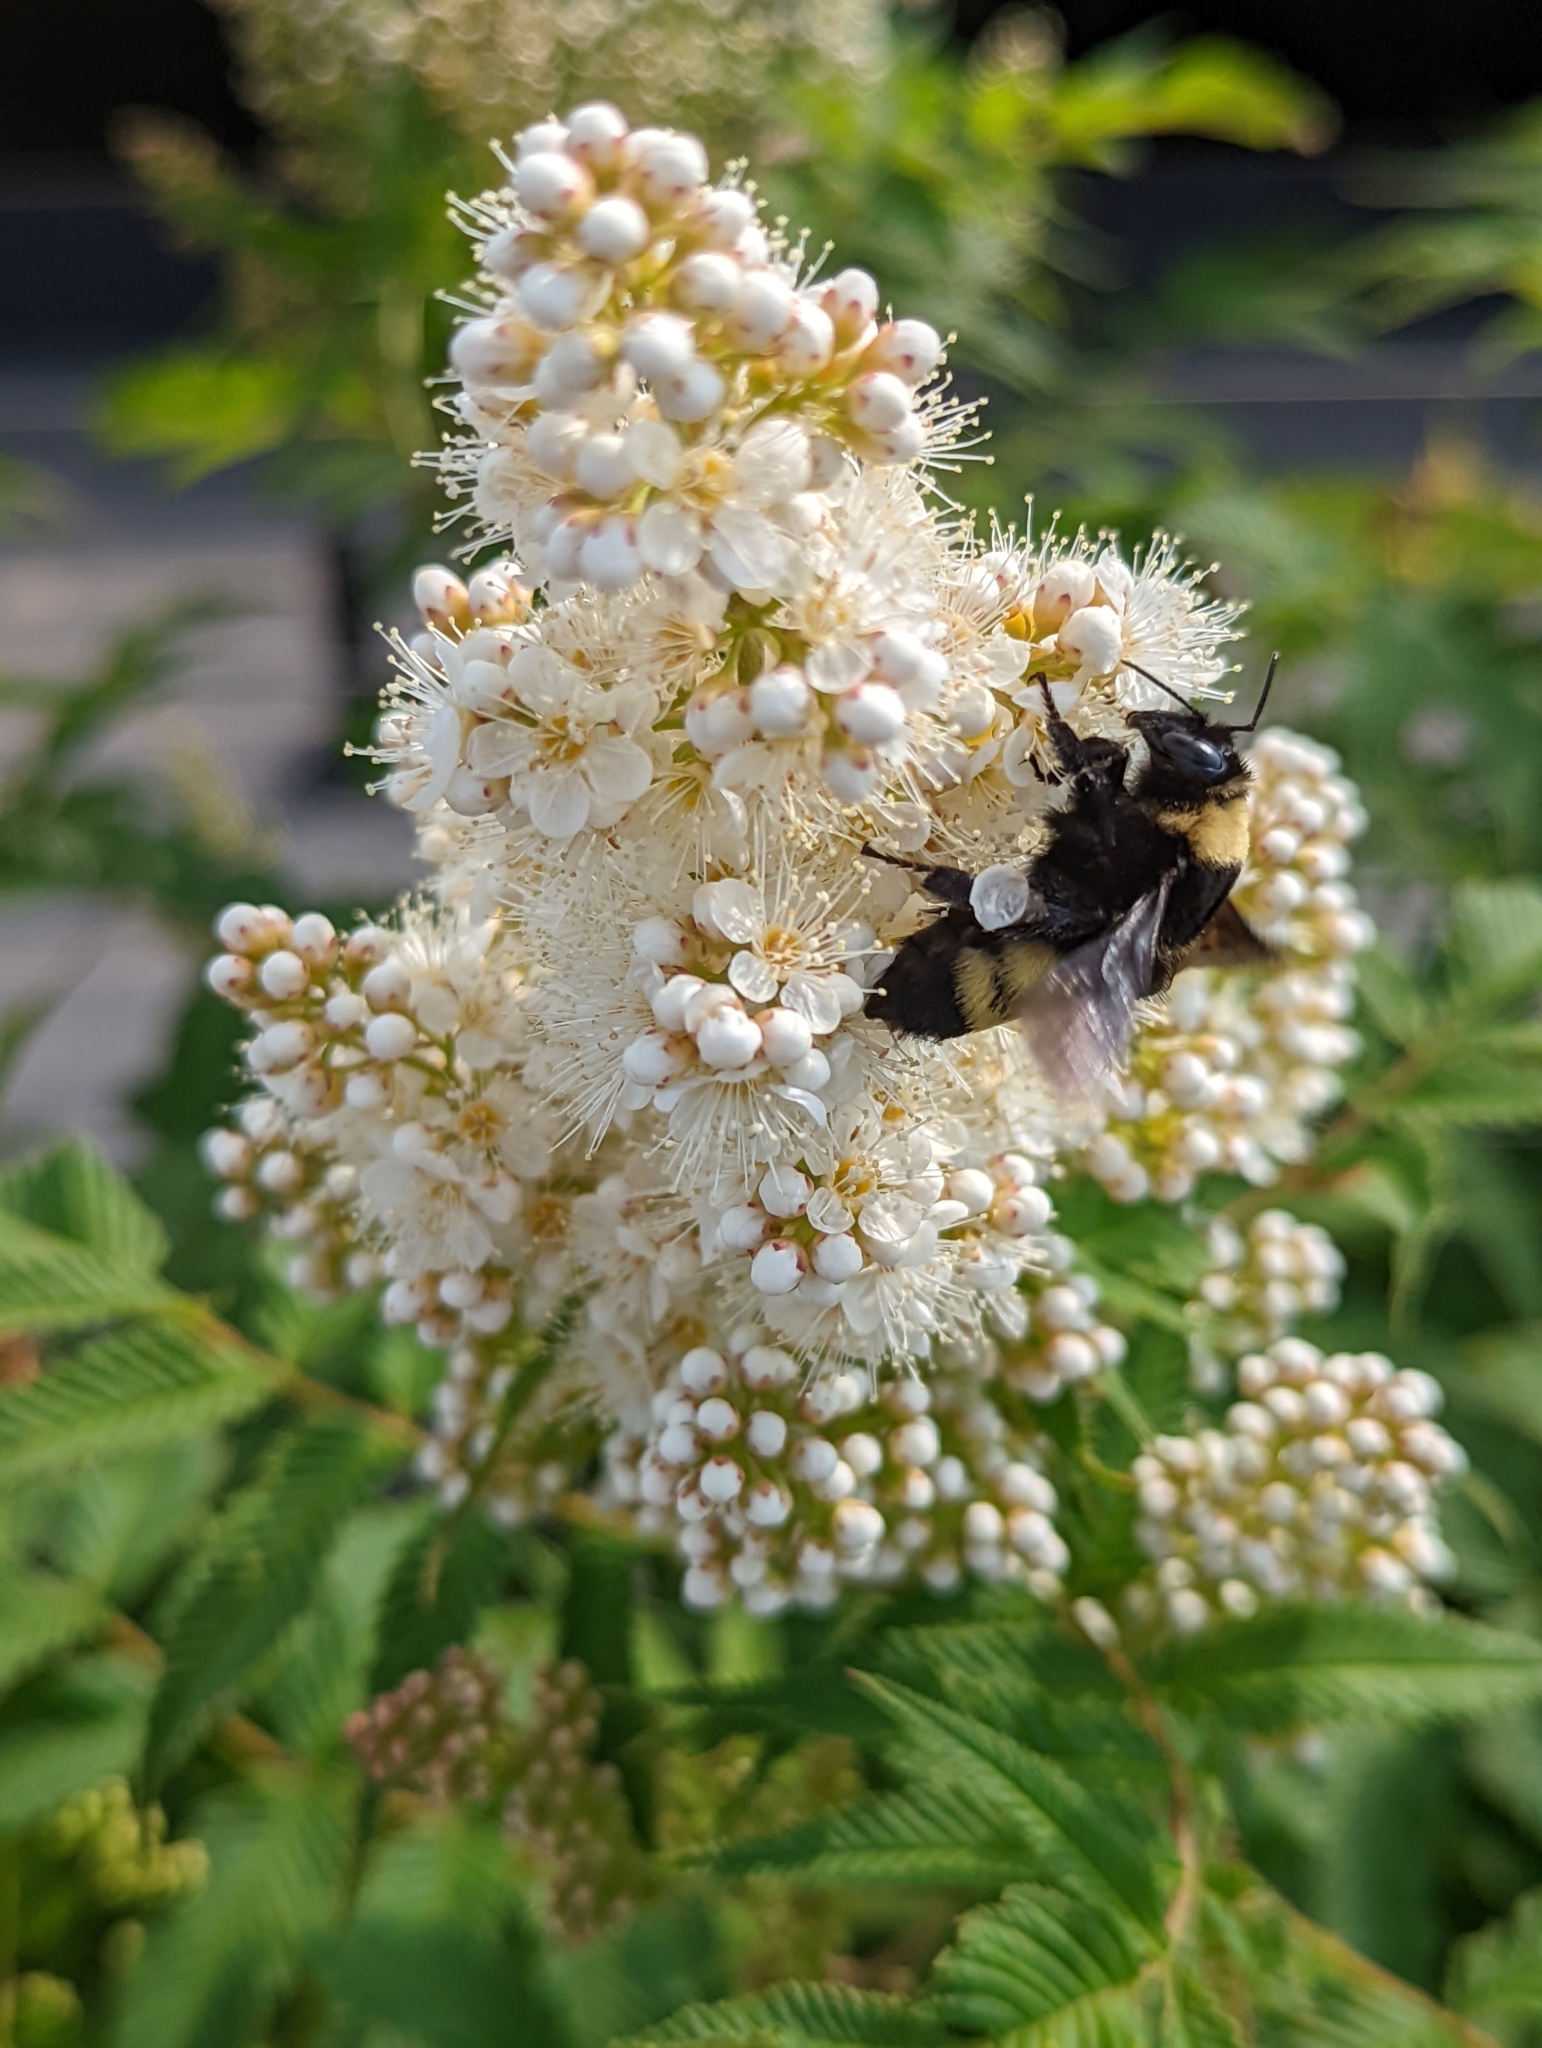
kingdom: Animalia
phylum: Arthropoda
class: Insecta
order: Hymenoptera
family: Apidae
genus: Bombus
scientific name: Bombus auricomus
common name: Black and gold bumble bee
